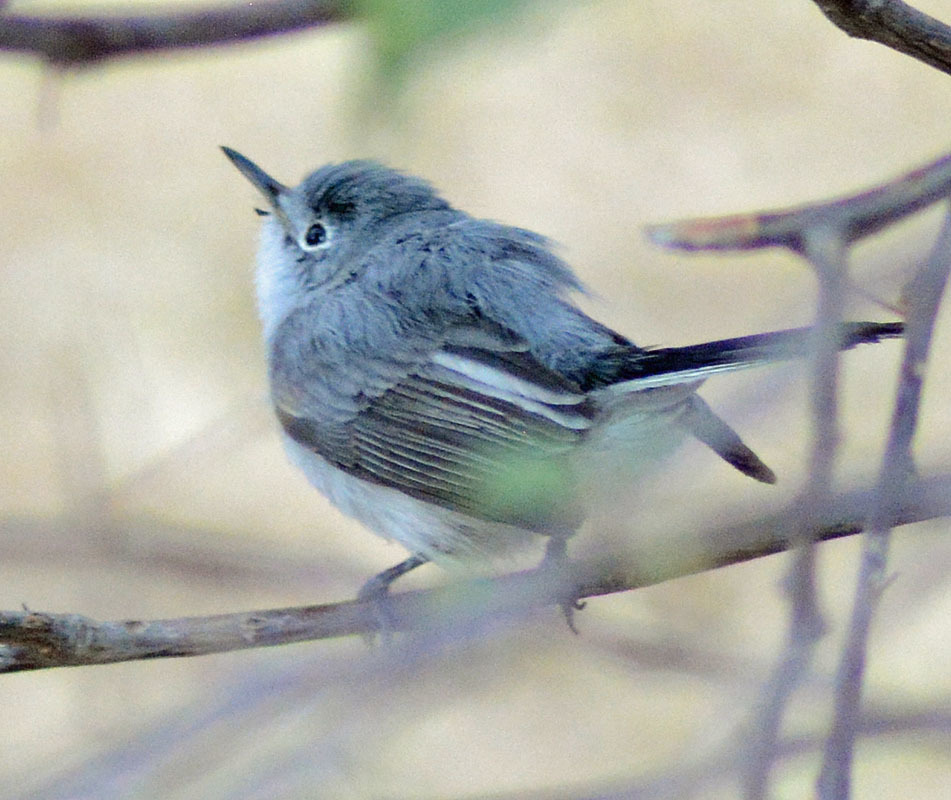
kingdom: Animalia
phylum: Chordata
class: Aves
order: Passeriformes
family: Polioptilidae
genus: Polioptila
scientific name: Polioptila caerulea
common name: Blue-gray gnatcatcher
